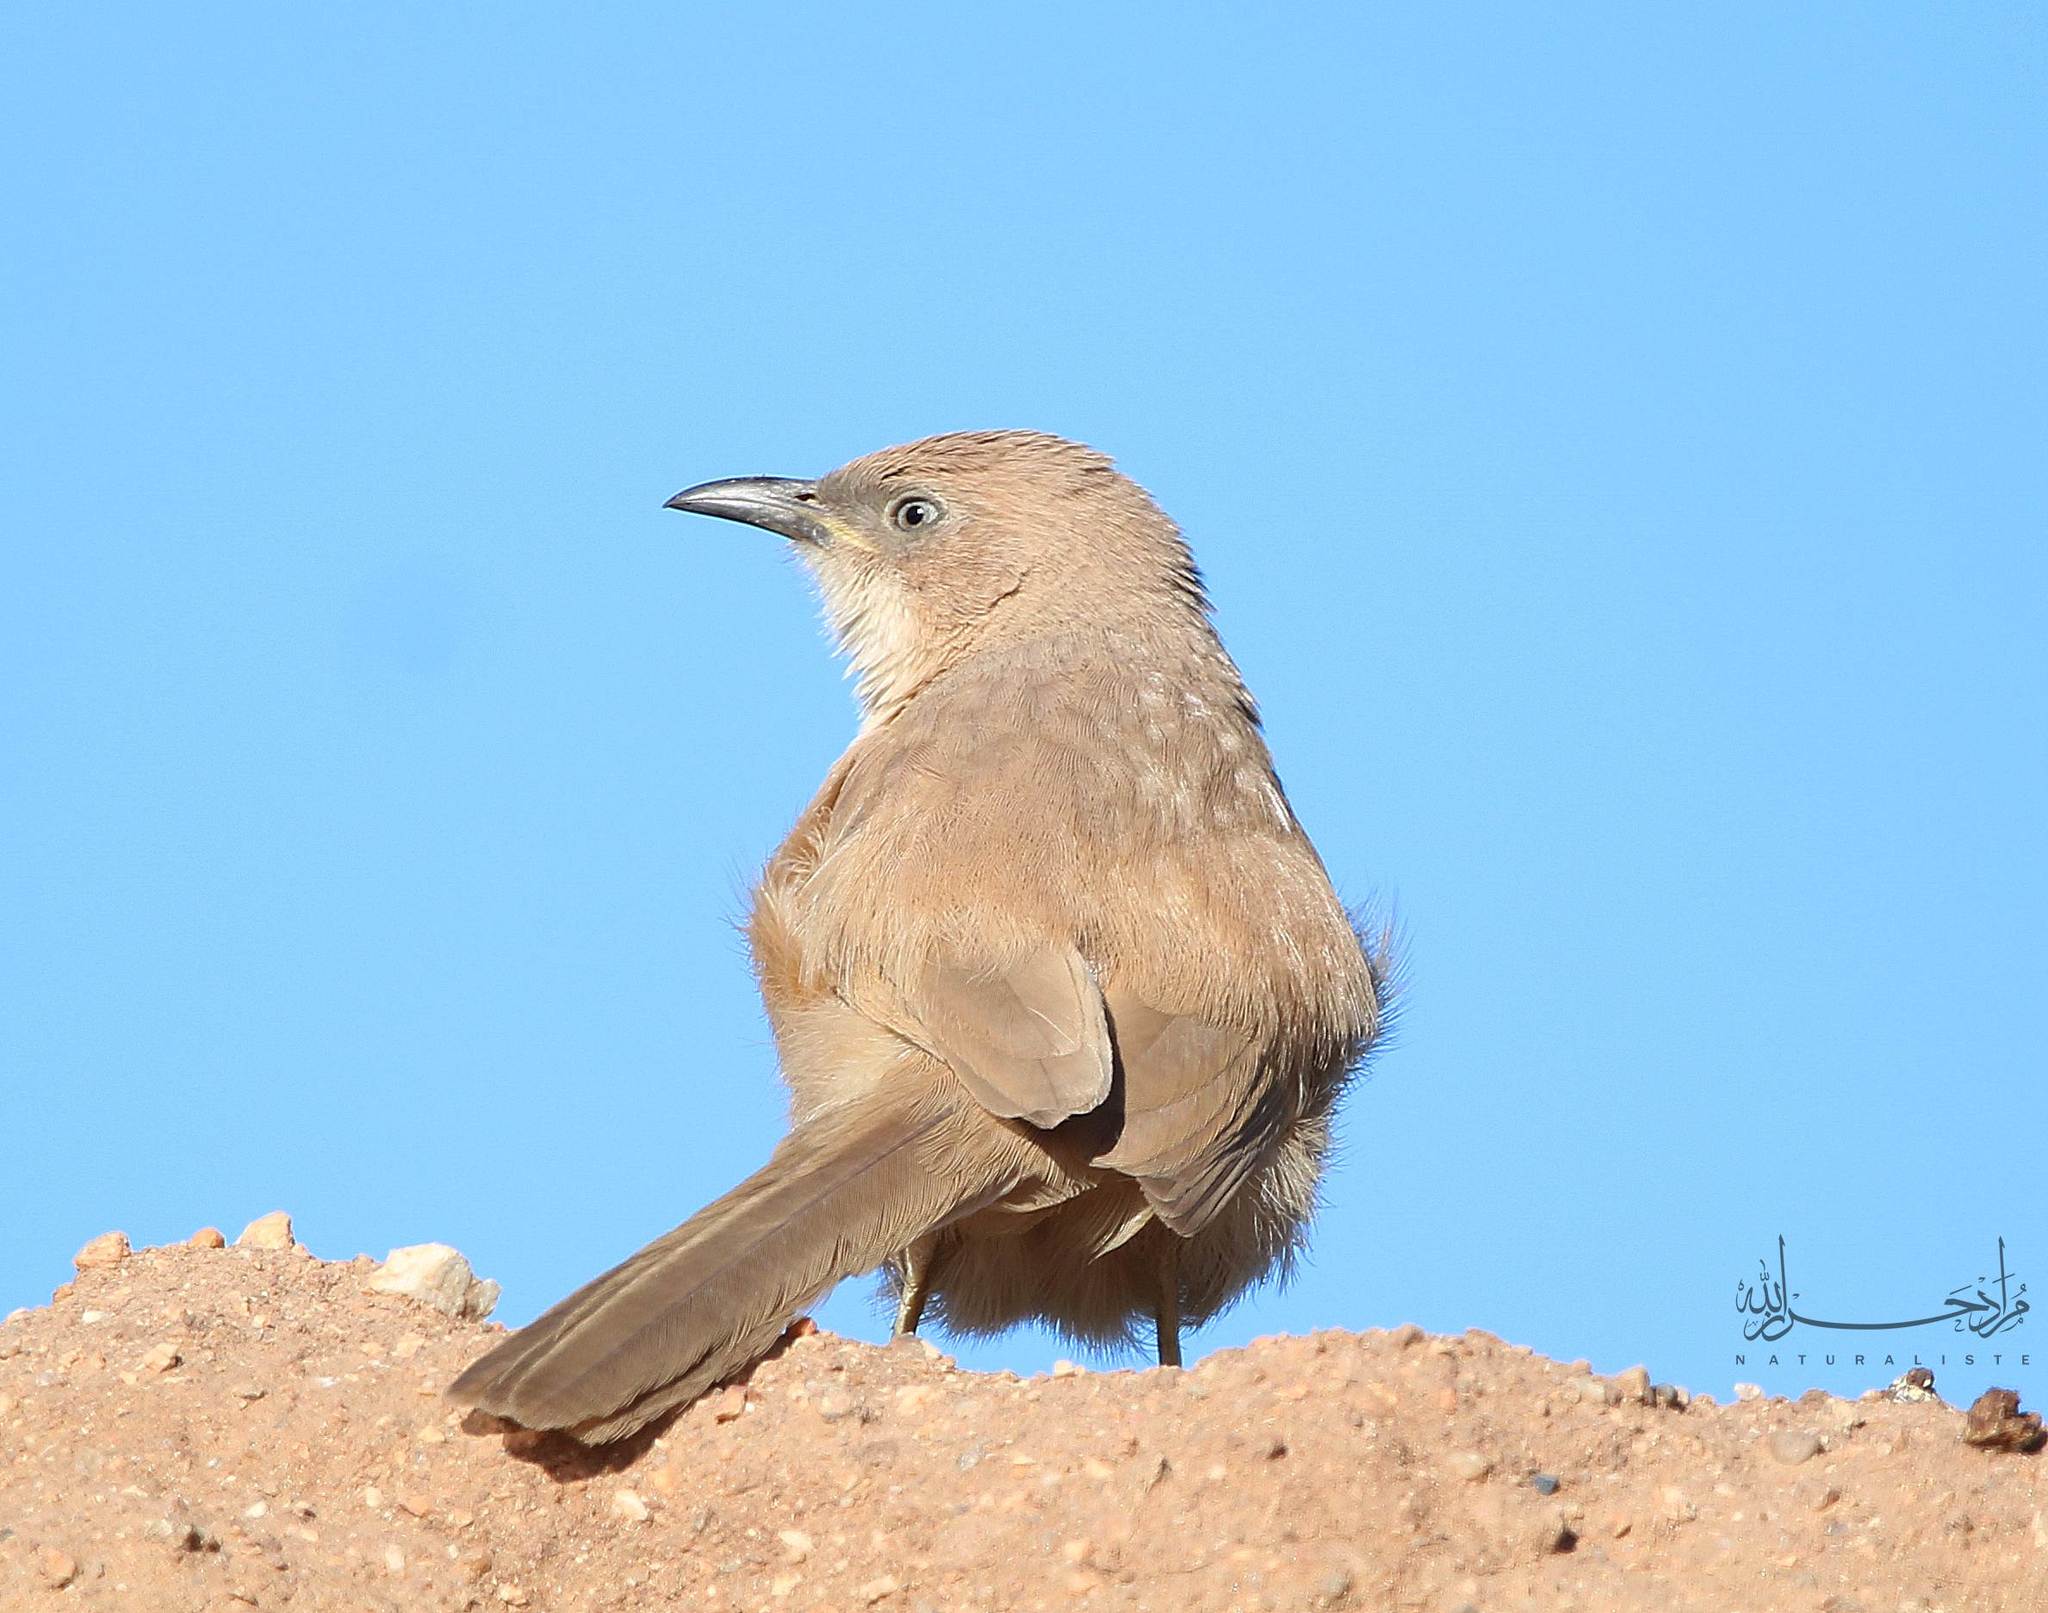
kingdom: Animalia
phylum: Chordata
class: Aves
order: Passeriformes
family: Leiothrichidae
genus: Turdoides
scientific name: Turdoides fulva
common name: Fulvous babbler
